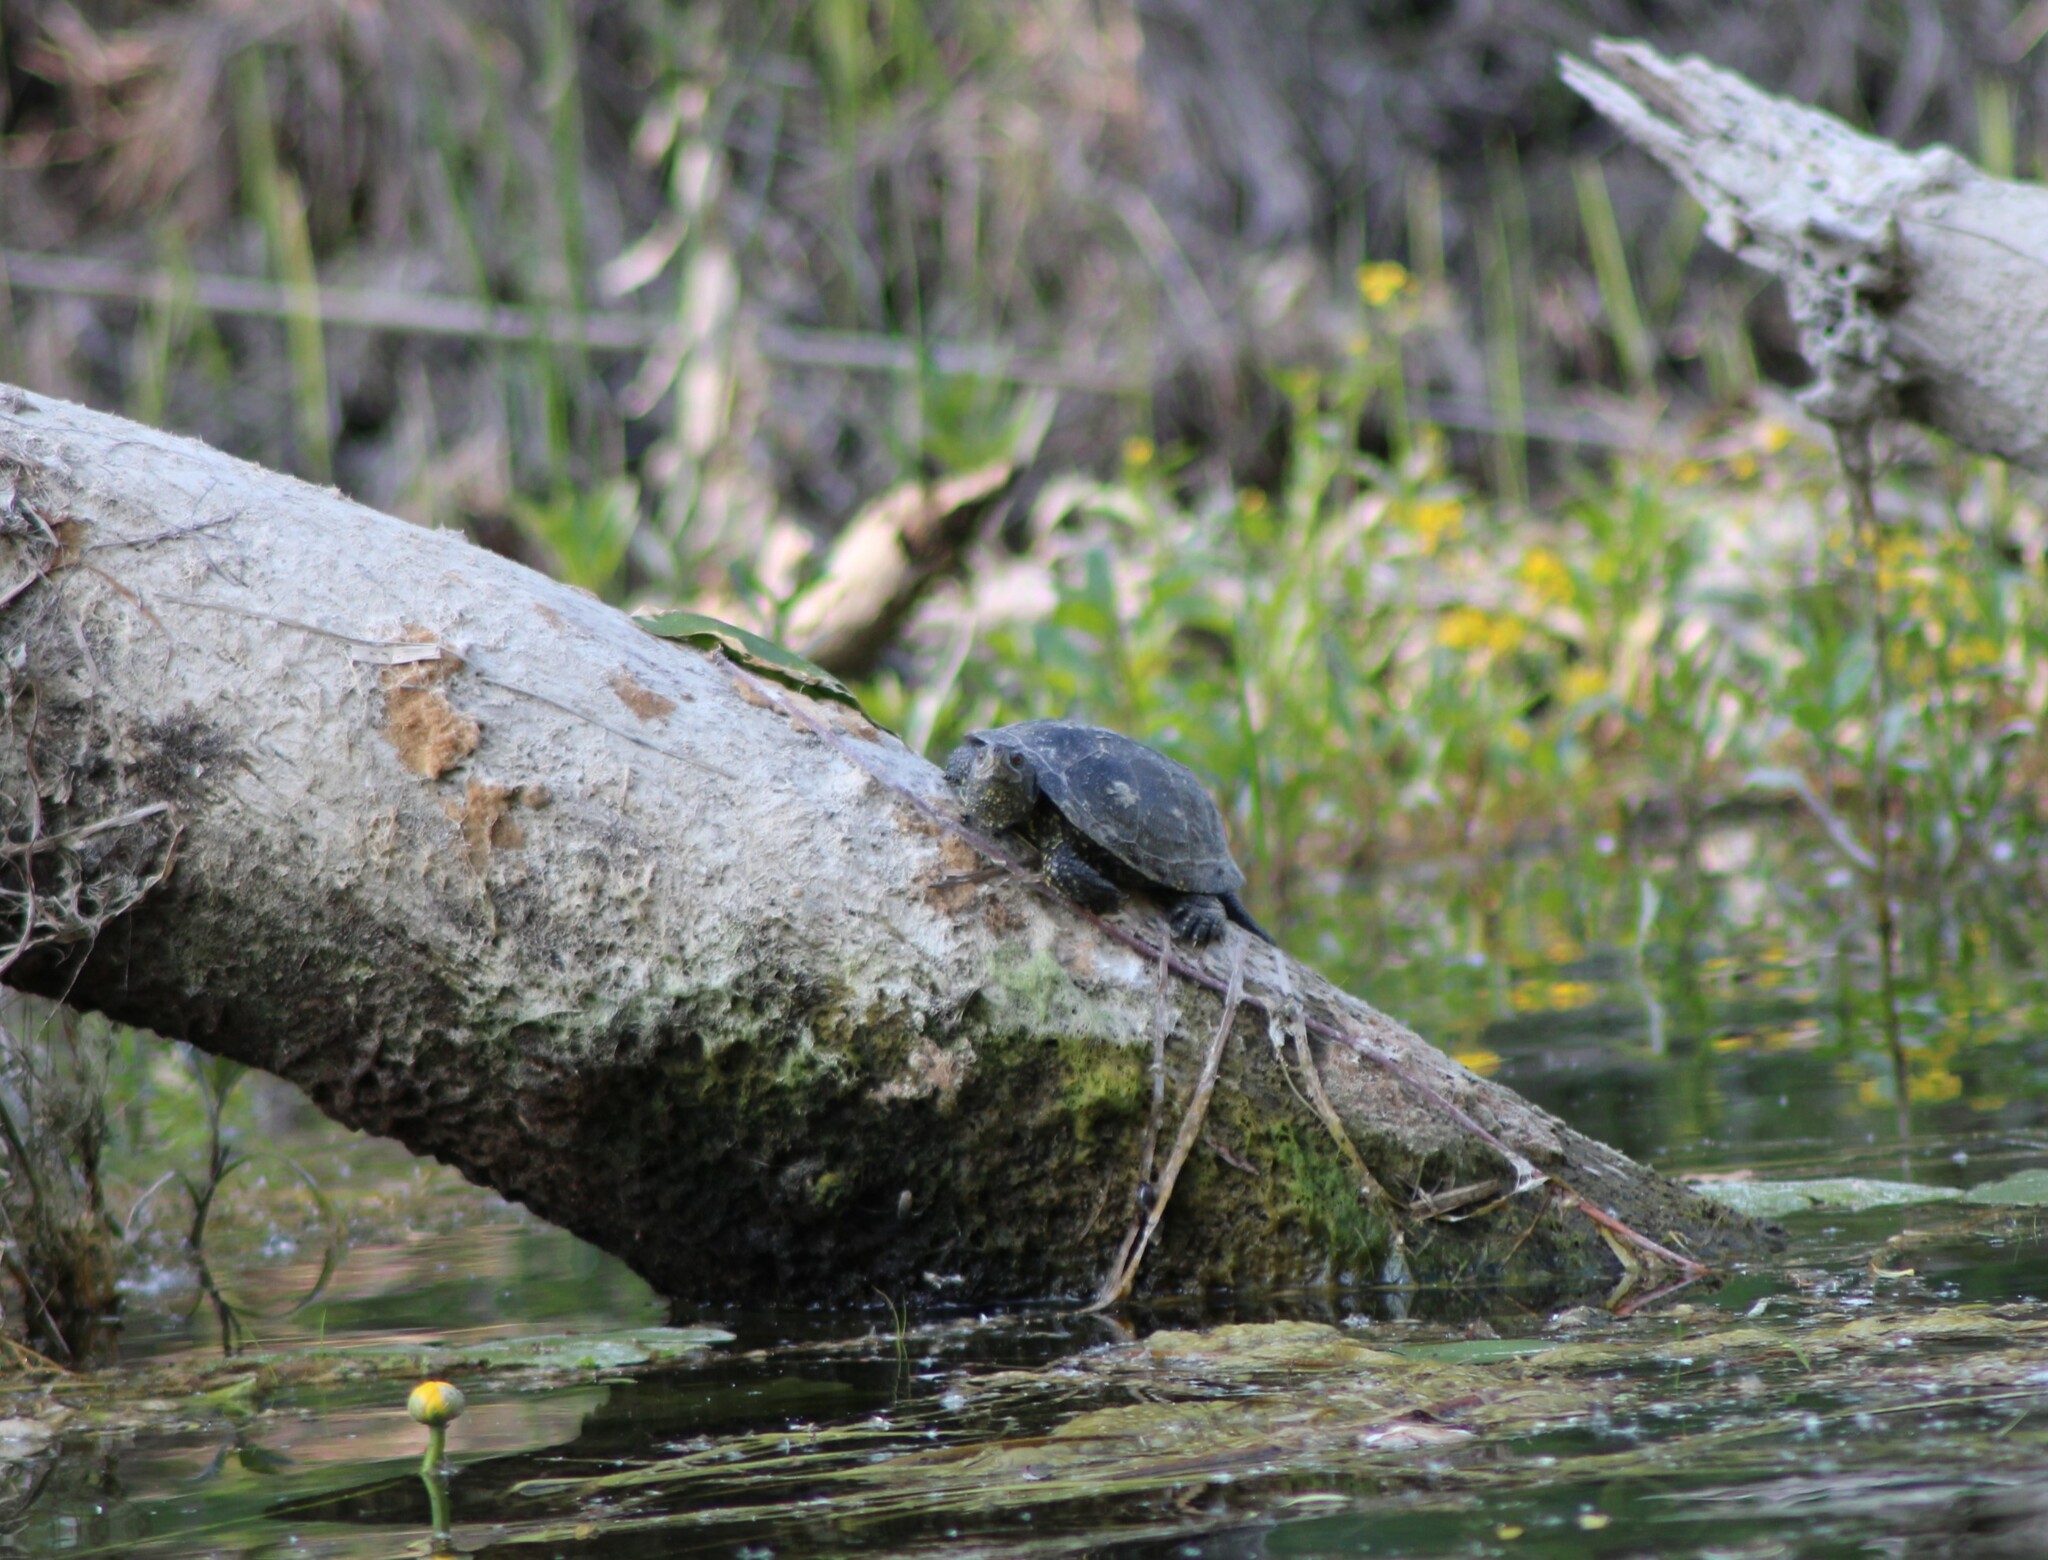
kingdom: Animalia
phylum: Chordata
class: Testudines
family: Emydidae
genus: Emys
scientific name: Emys orbicularis
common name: European pond turtle
